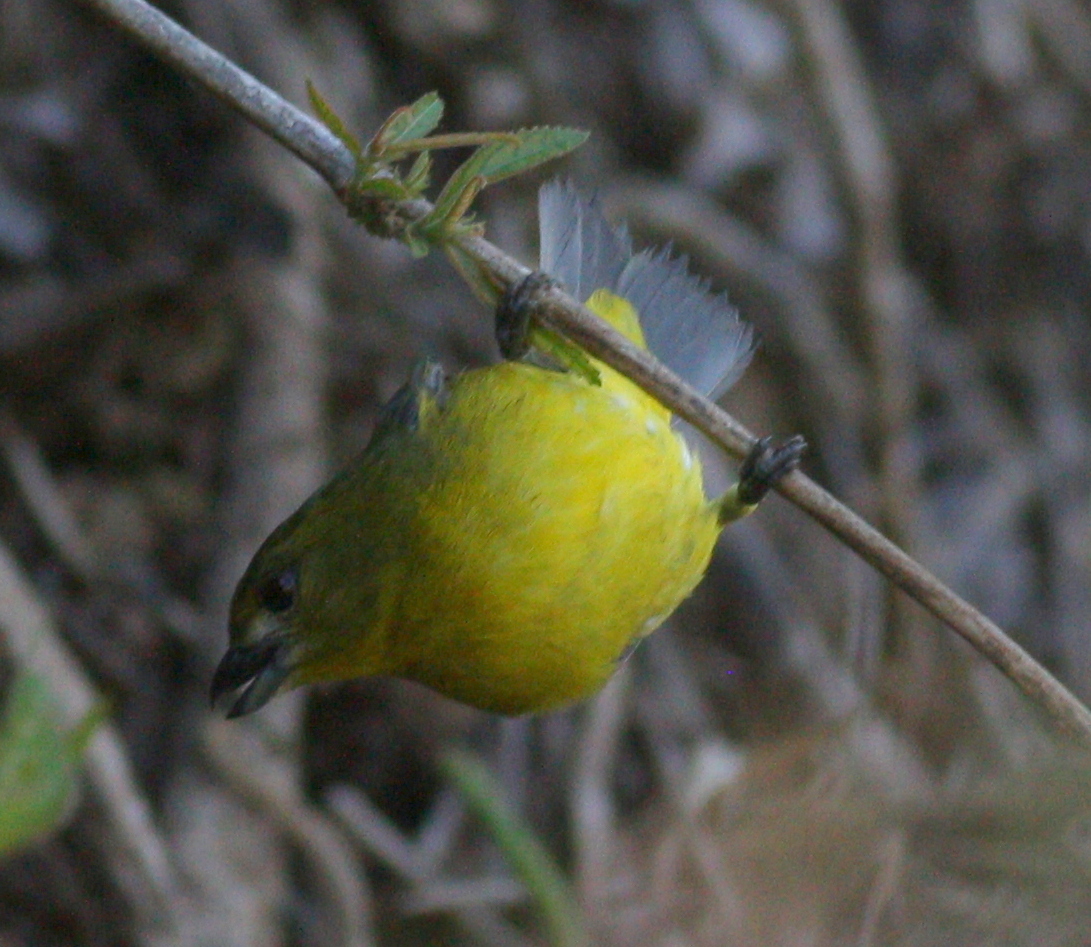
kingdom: Animalia
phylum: Chordata
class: Aves
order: Passeriformes
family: Fringillidae
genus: Euphonia
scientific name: Euphonia laniirostris
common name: Thick-billed euphonia
